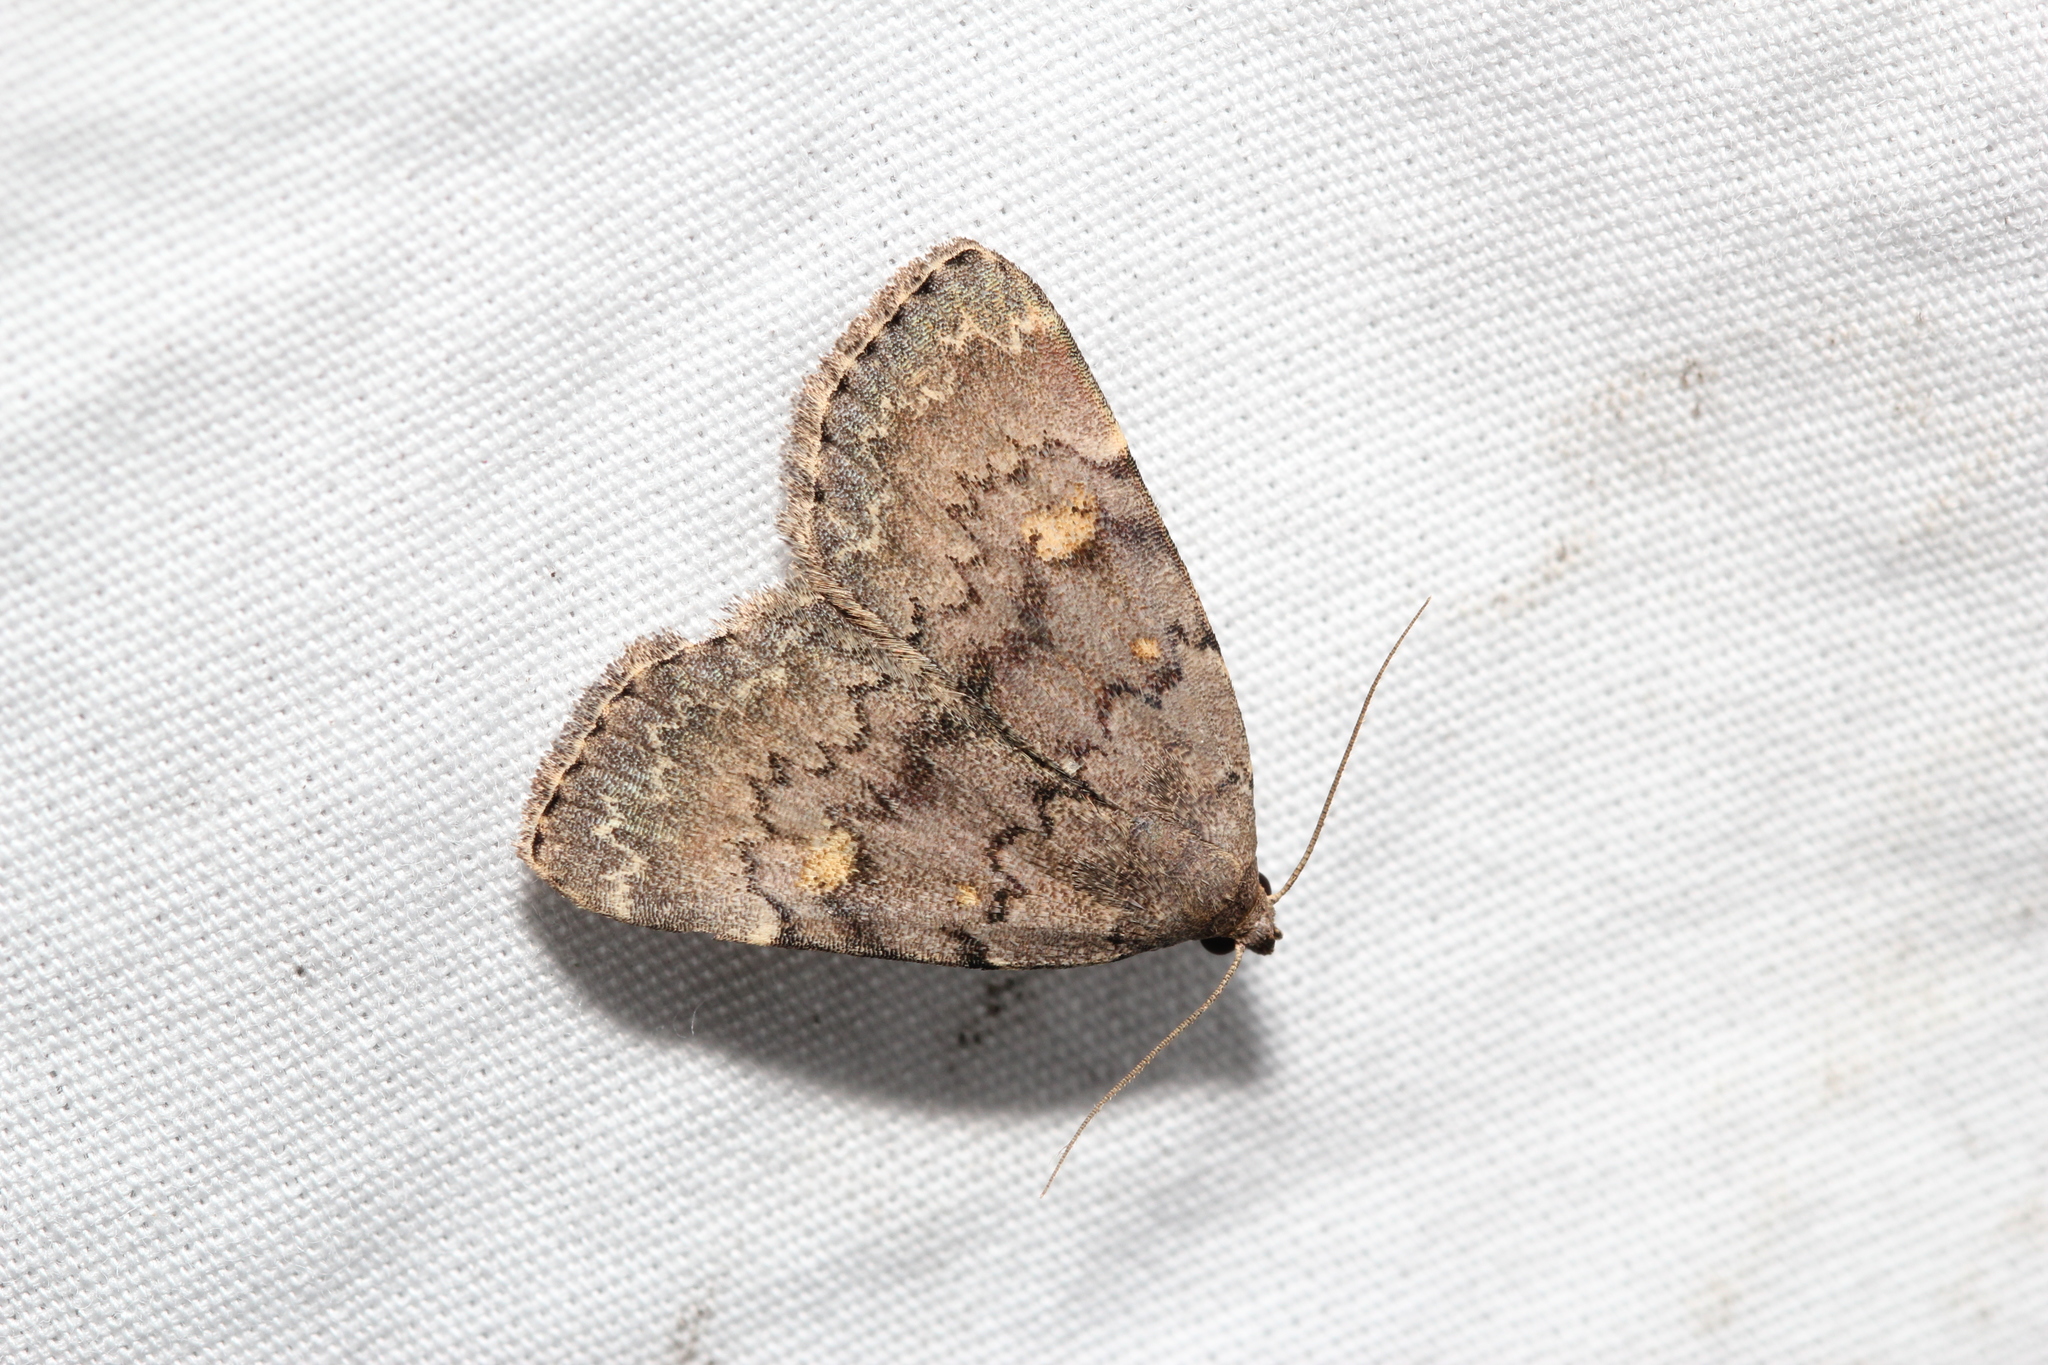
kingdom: Animalia
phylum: Arthropoda
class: Insecta
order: Lepidoptera
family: Erebidae
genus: Idia
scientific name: Idia aemula
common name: Common idia moth
